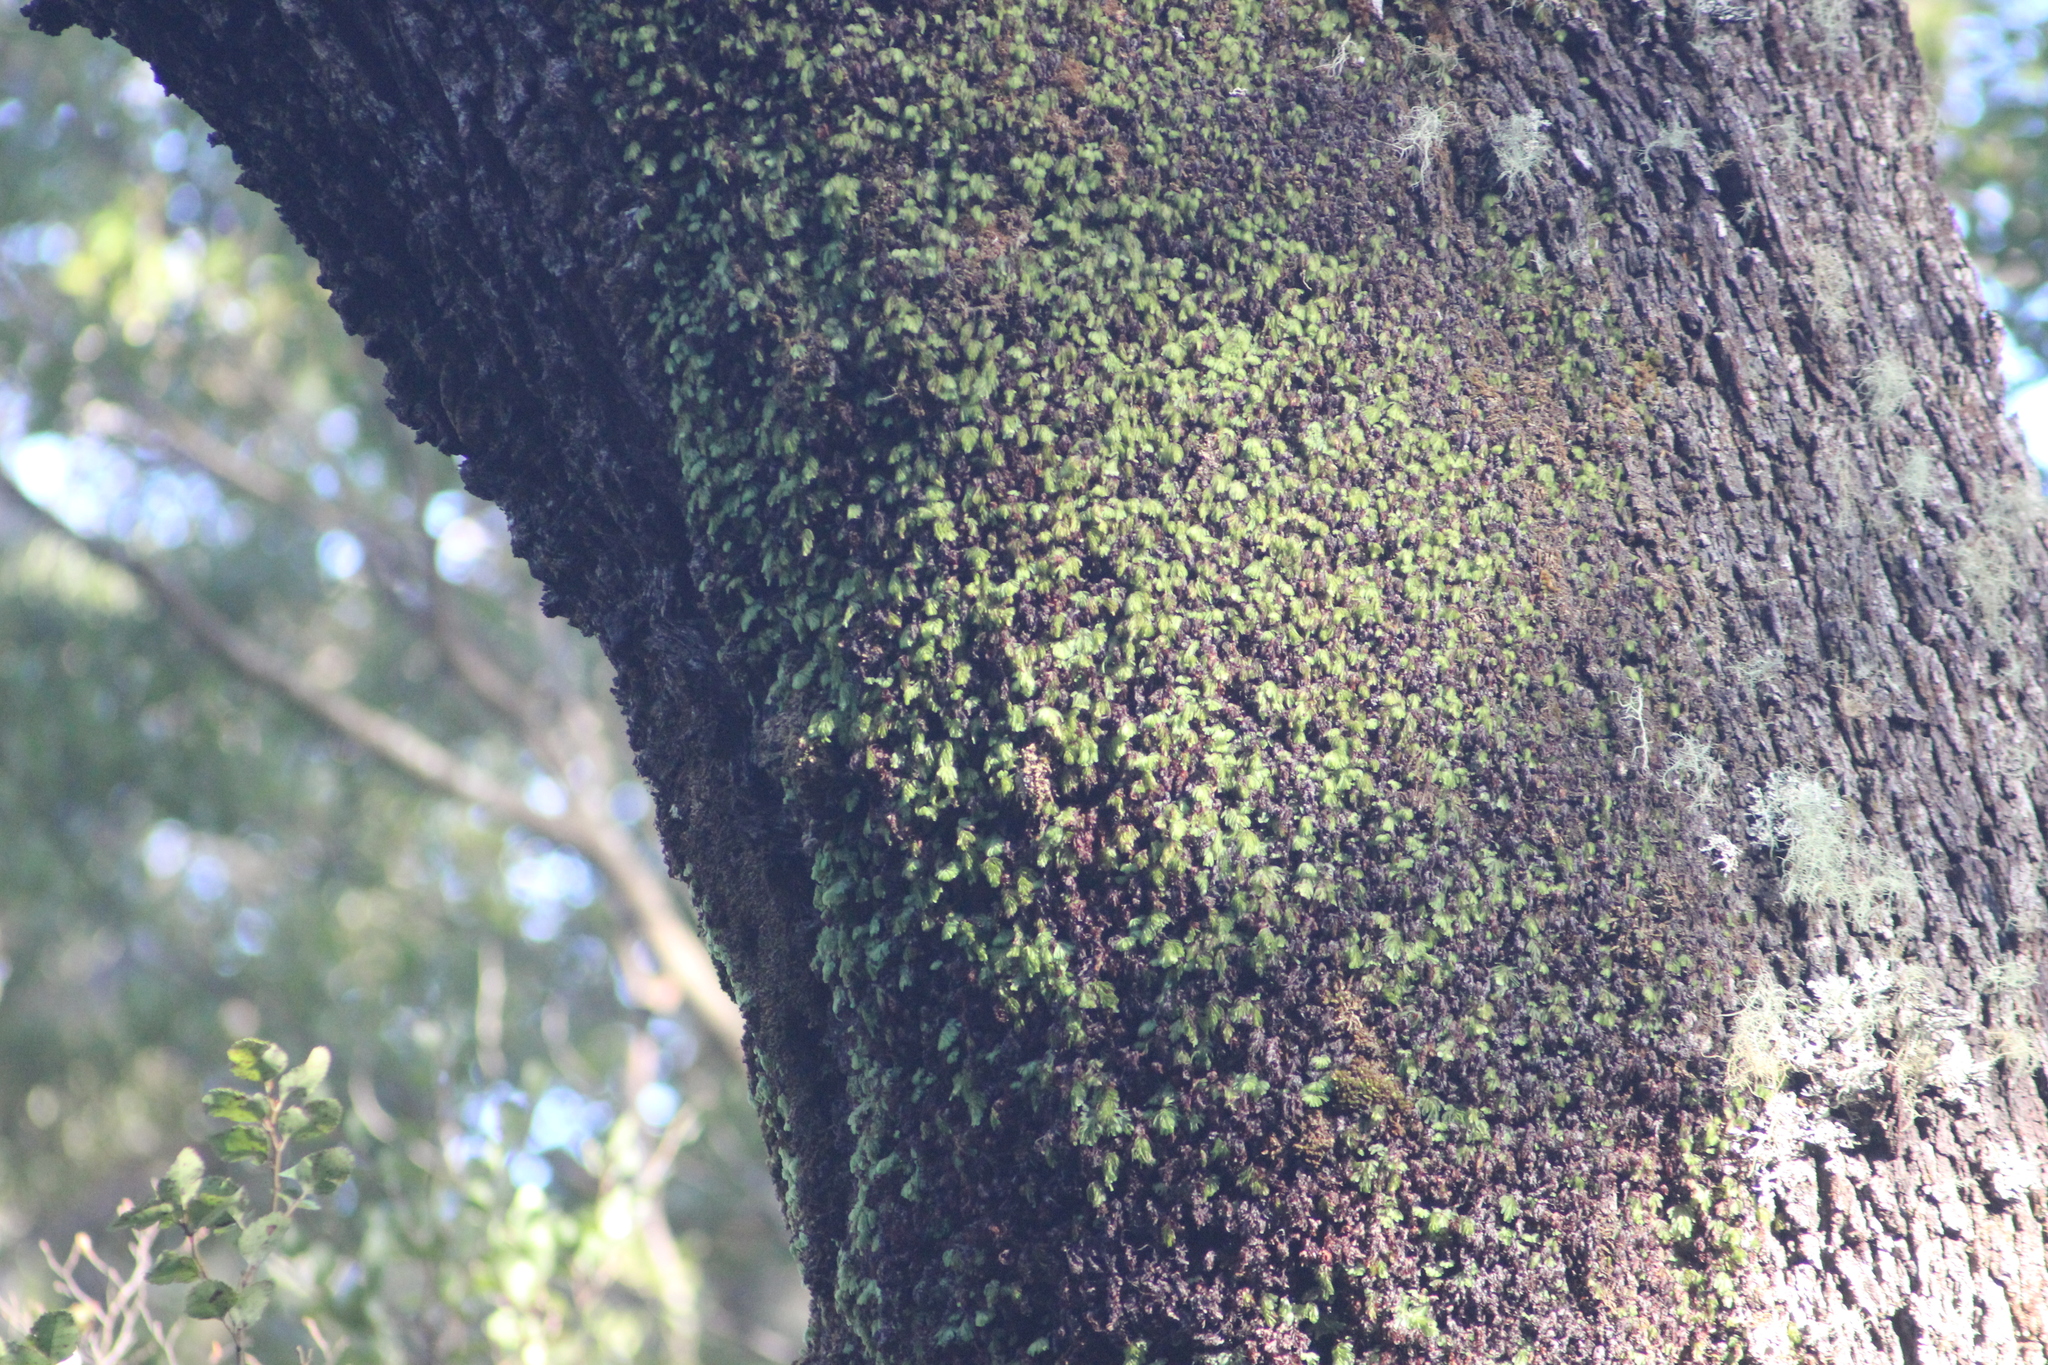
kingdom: Plantae
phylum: Tracheophyta
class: Polypodiopsida
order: Hymenophyllales
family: Hymenophyllaceae
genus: Hymenophyllum
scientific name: Hymenophyllum rarum
